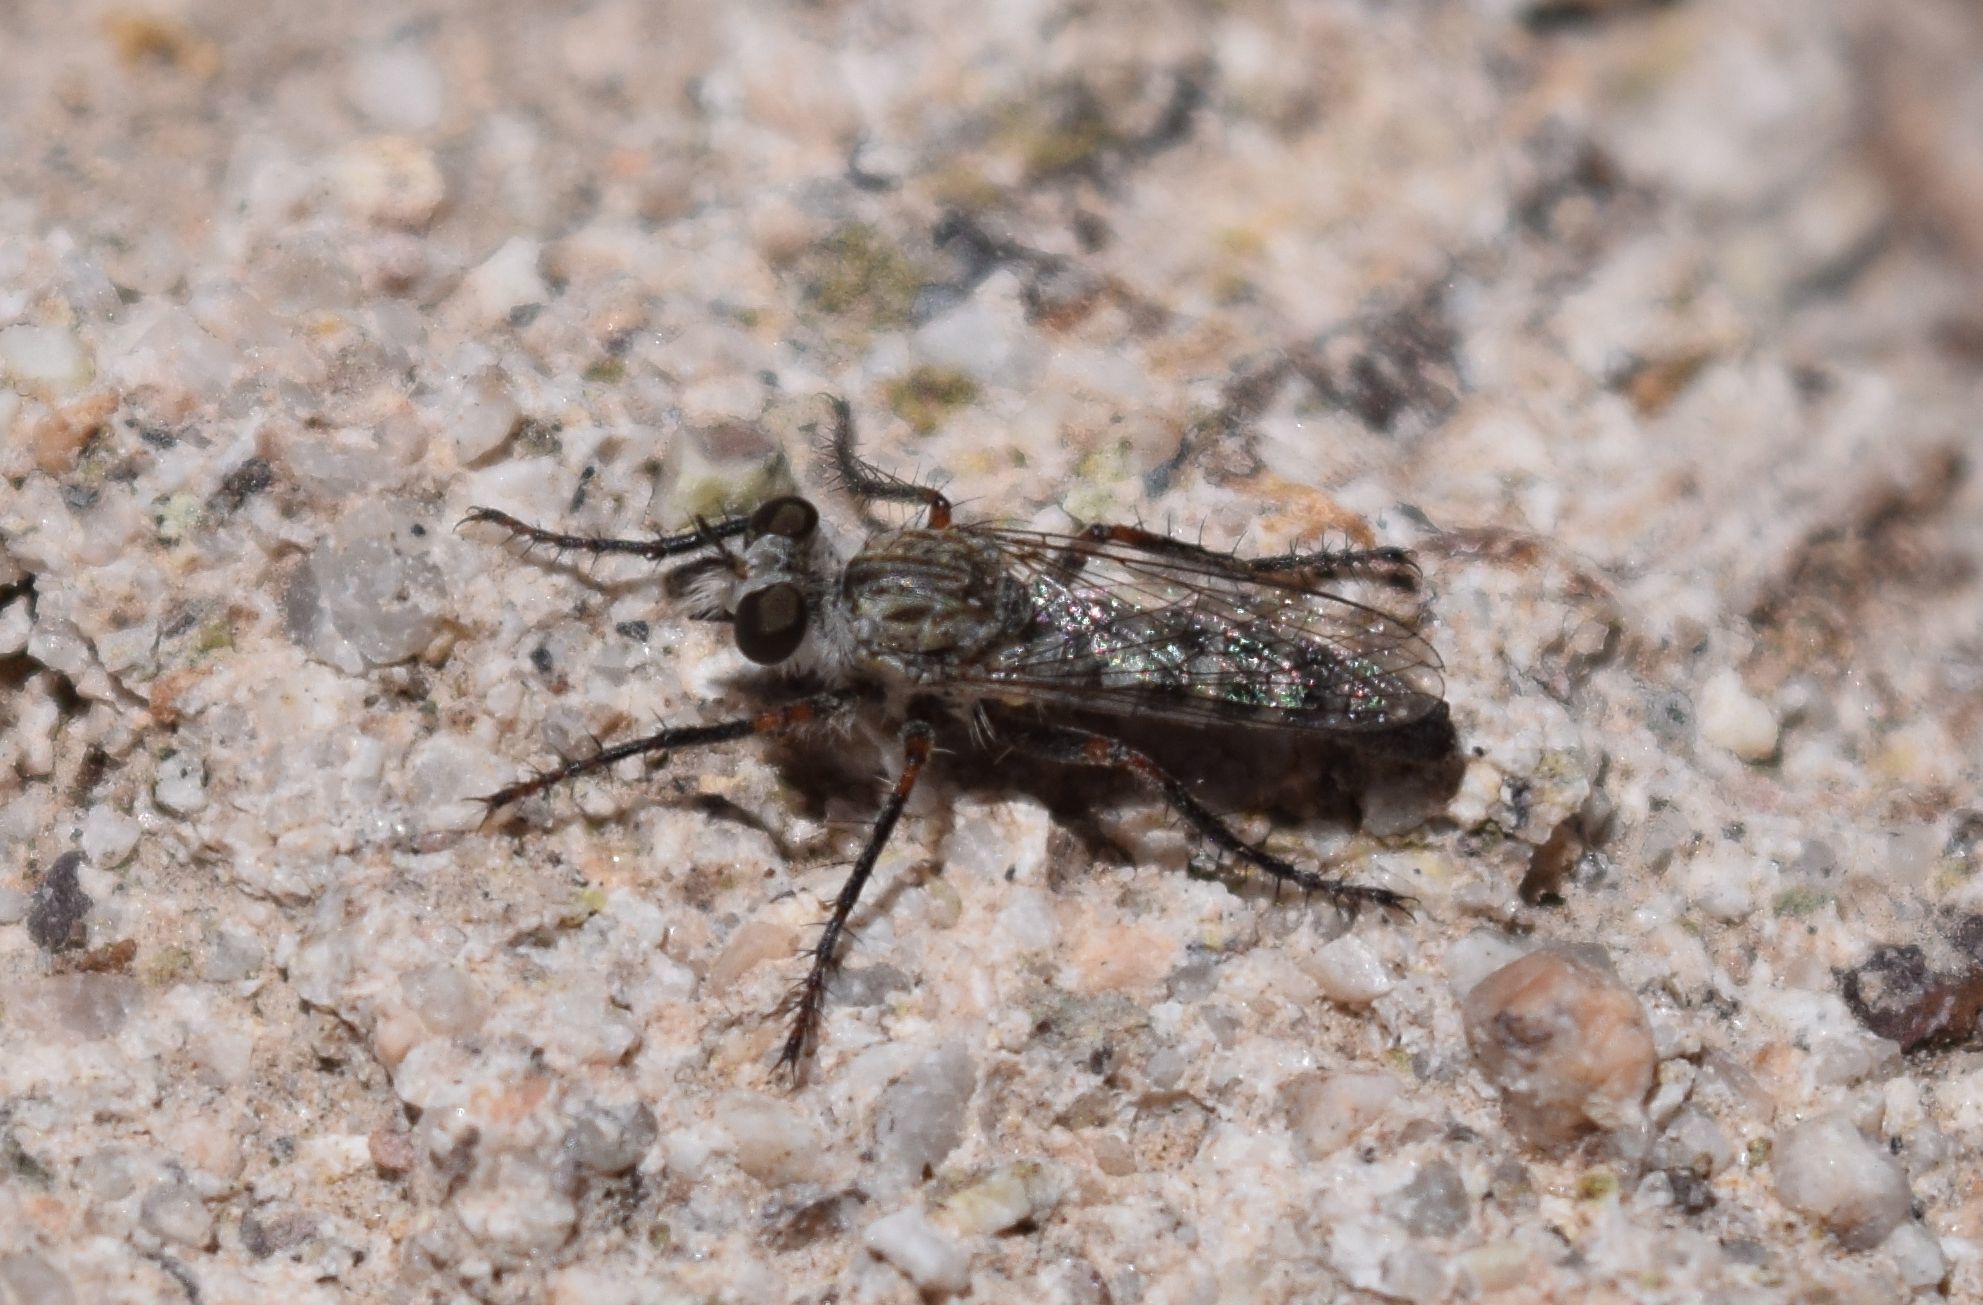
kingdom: Animalia
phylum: Arthropoda
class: Insecta
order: Diptera
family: Asilidae
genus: Lestomyia
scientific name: Lestomyia
